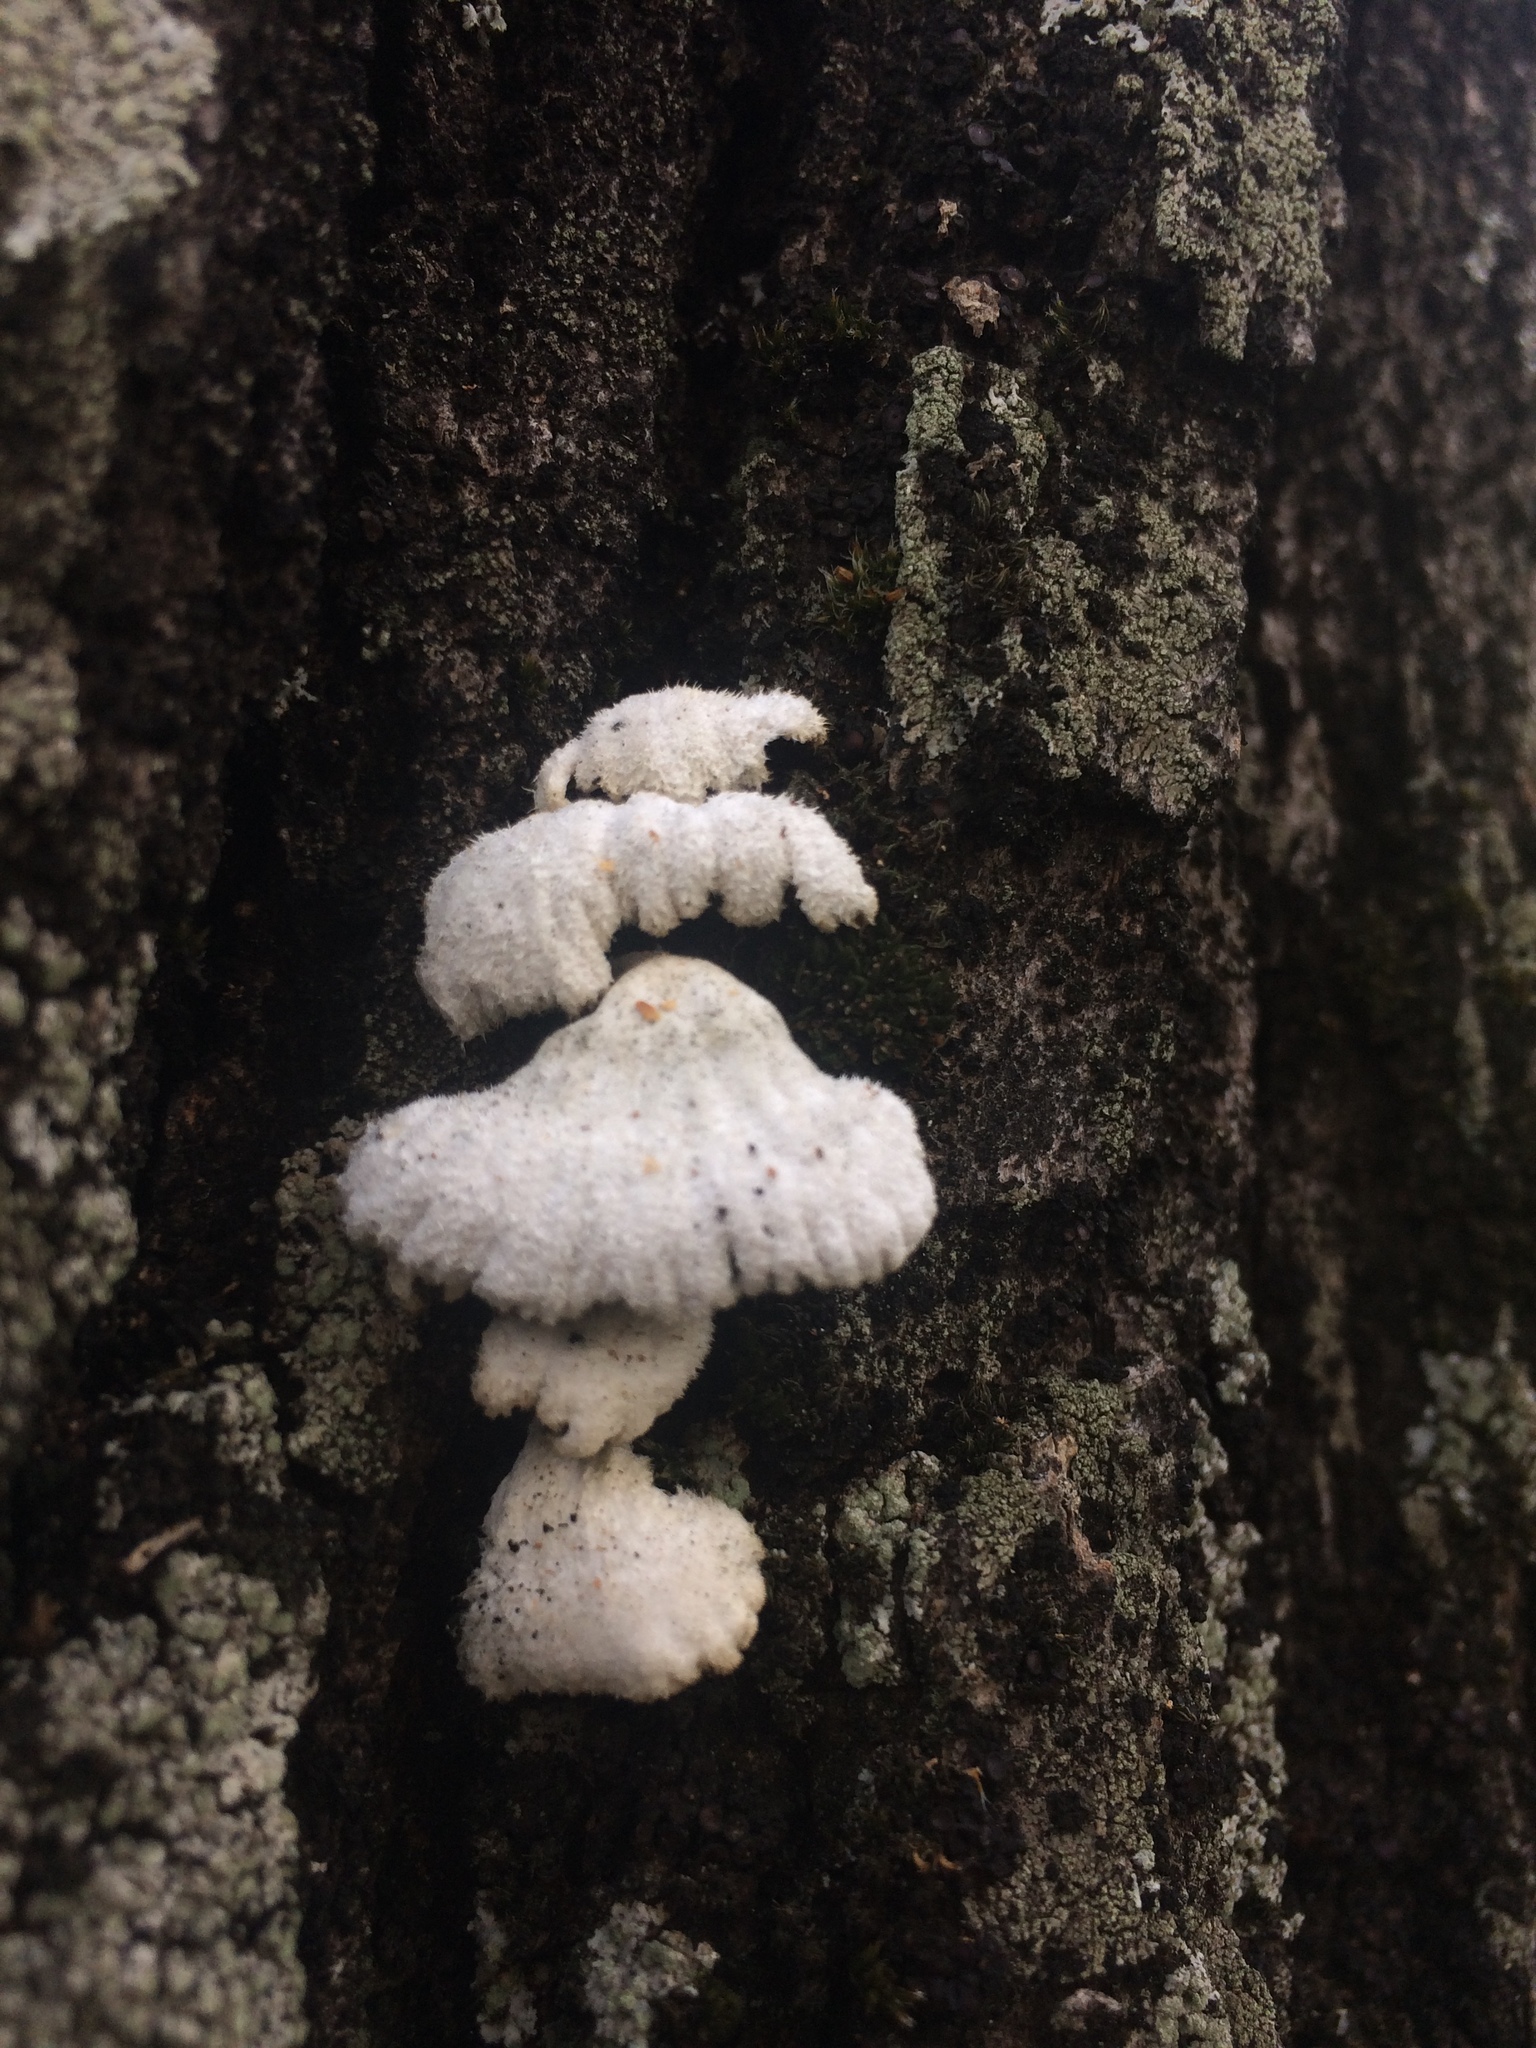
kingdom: Fungi
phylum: Basidiomycota
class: Agaricomycetes
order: Agaricales
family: Schizophyllaceae
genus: Schizophyllum
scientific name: Schizophyllum commune
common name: Common porecrust
